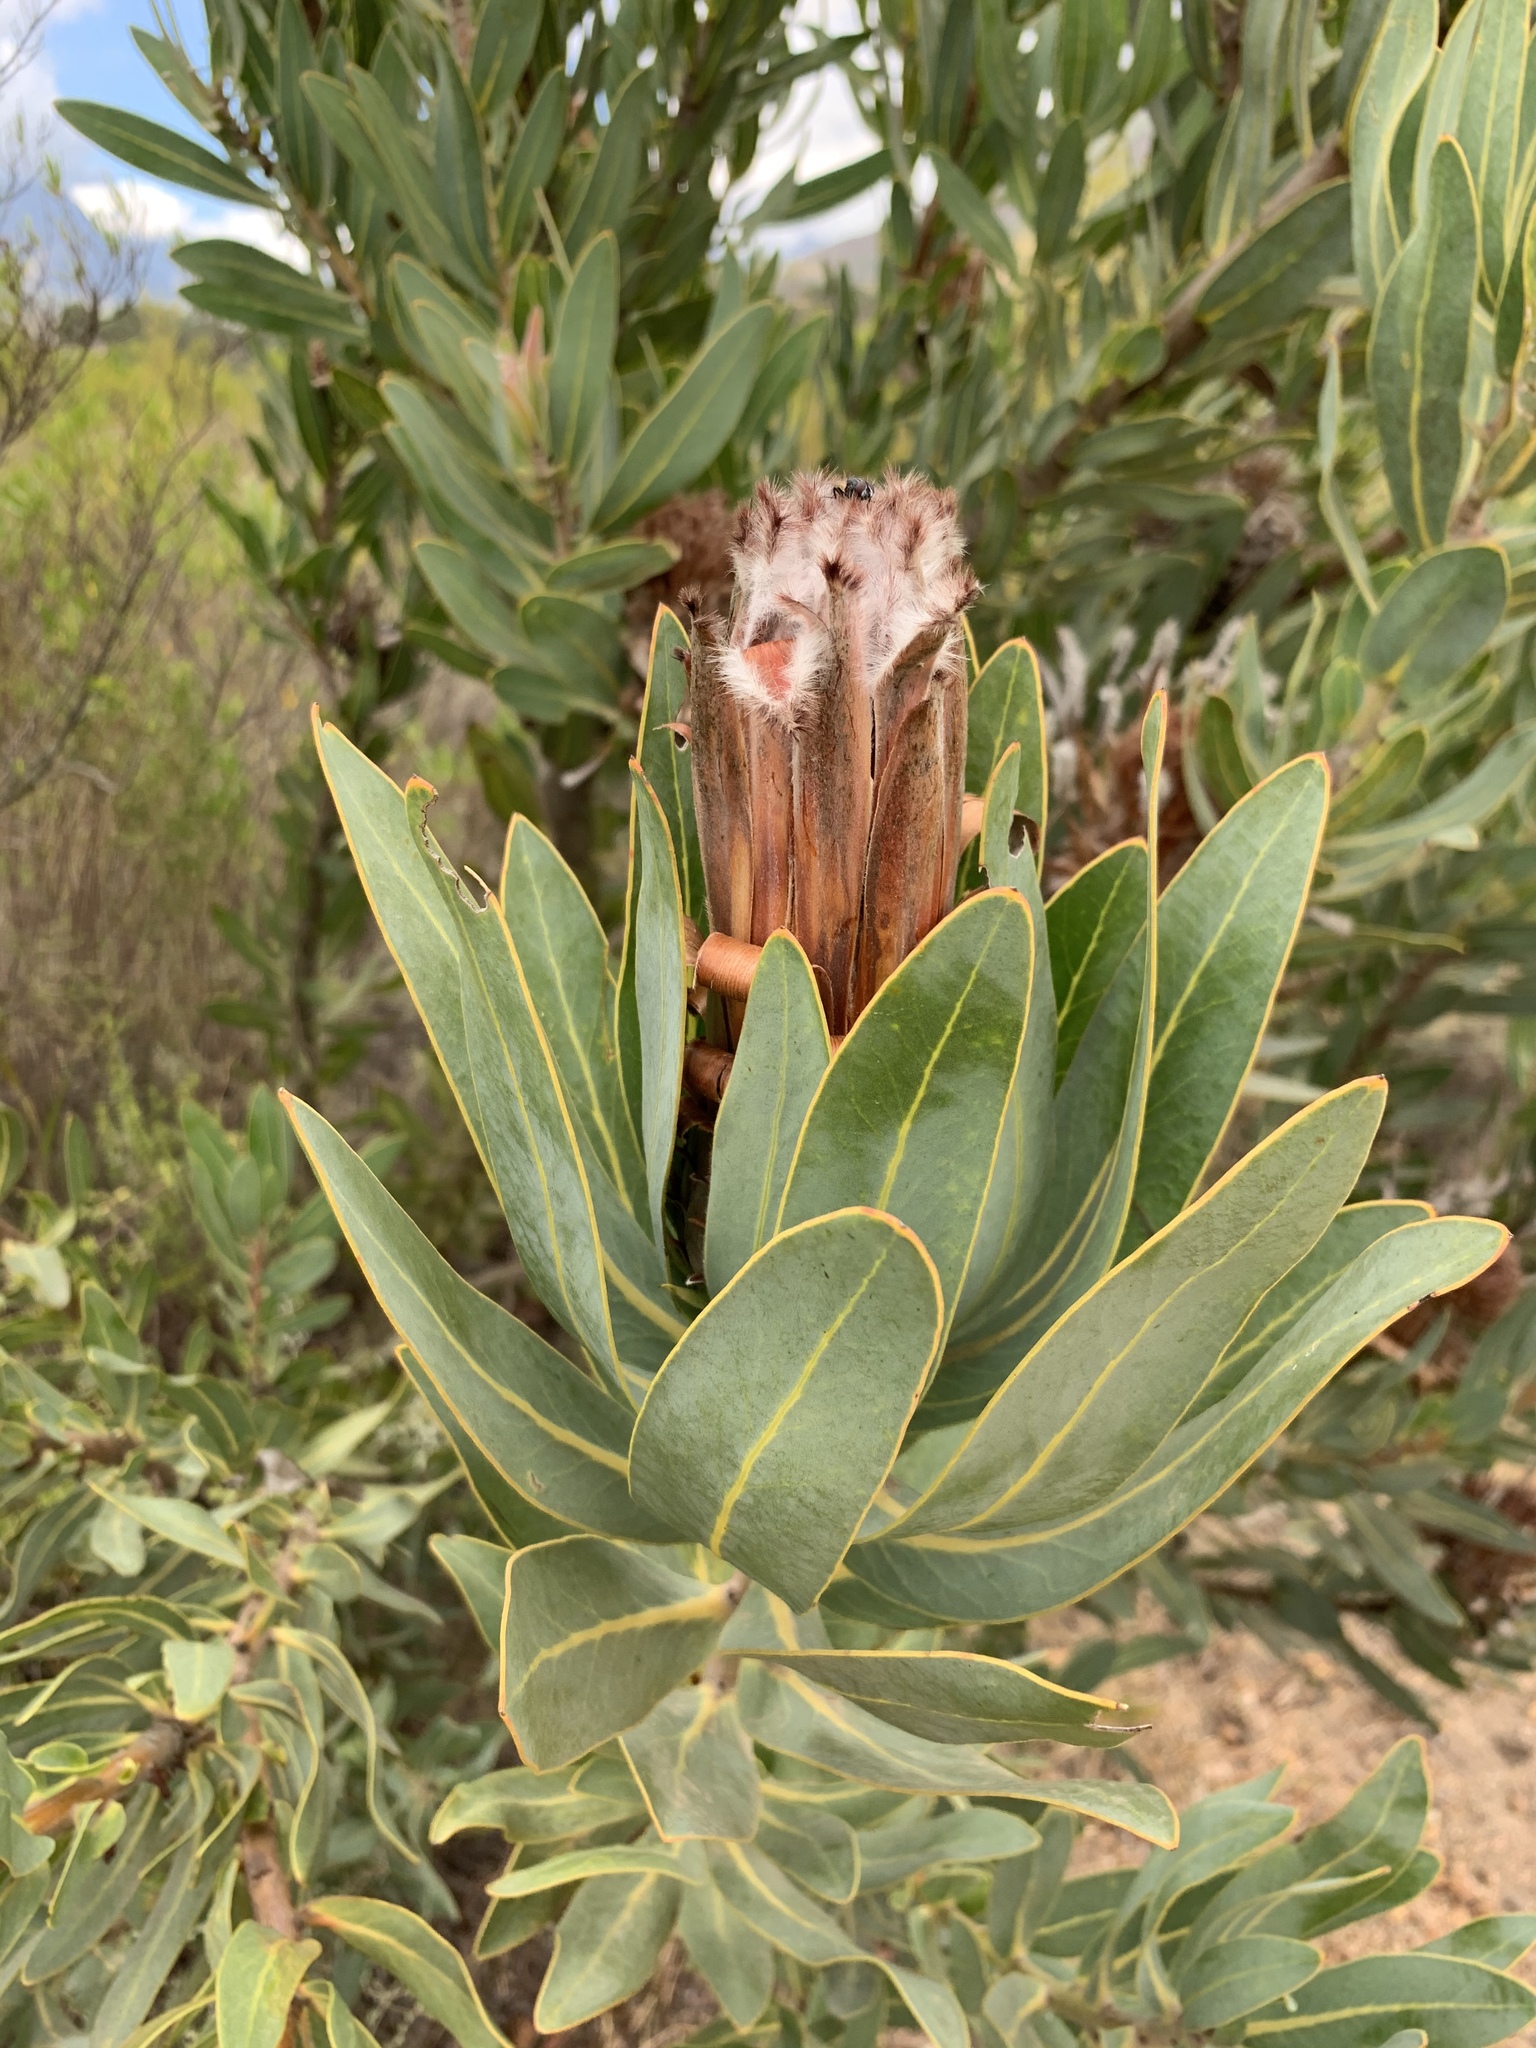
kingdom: Plantae
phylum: Tracheophyta
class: Magnoliopsida
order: Proteales
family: Proteaceae
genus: Protea
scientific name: Protea laurifolia
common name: Grey-leaf sugarbsh
